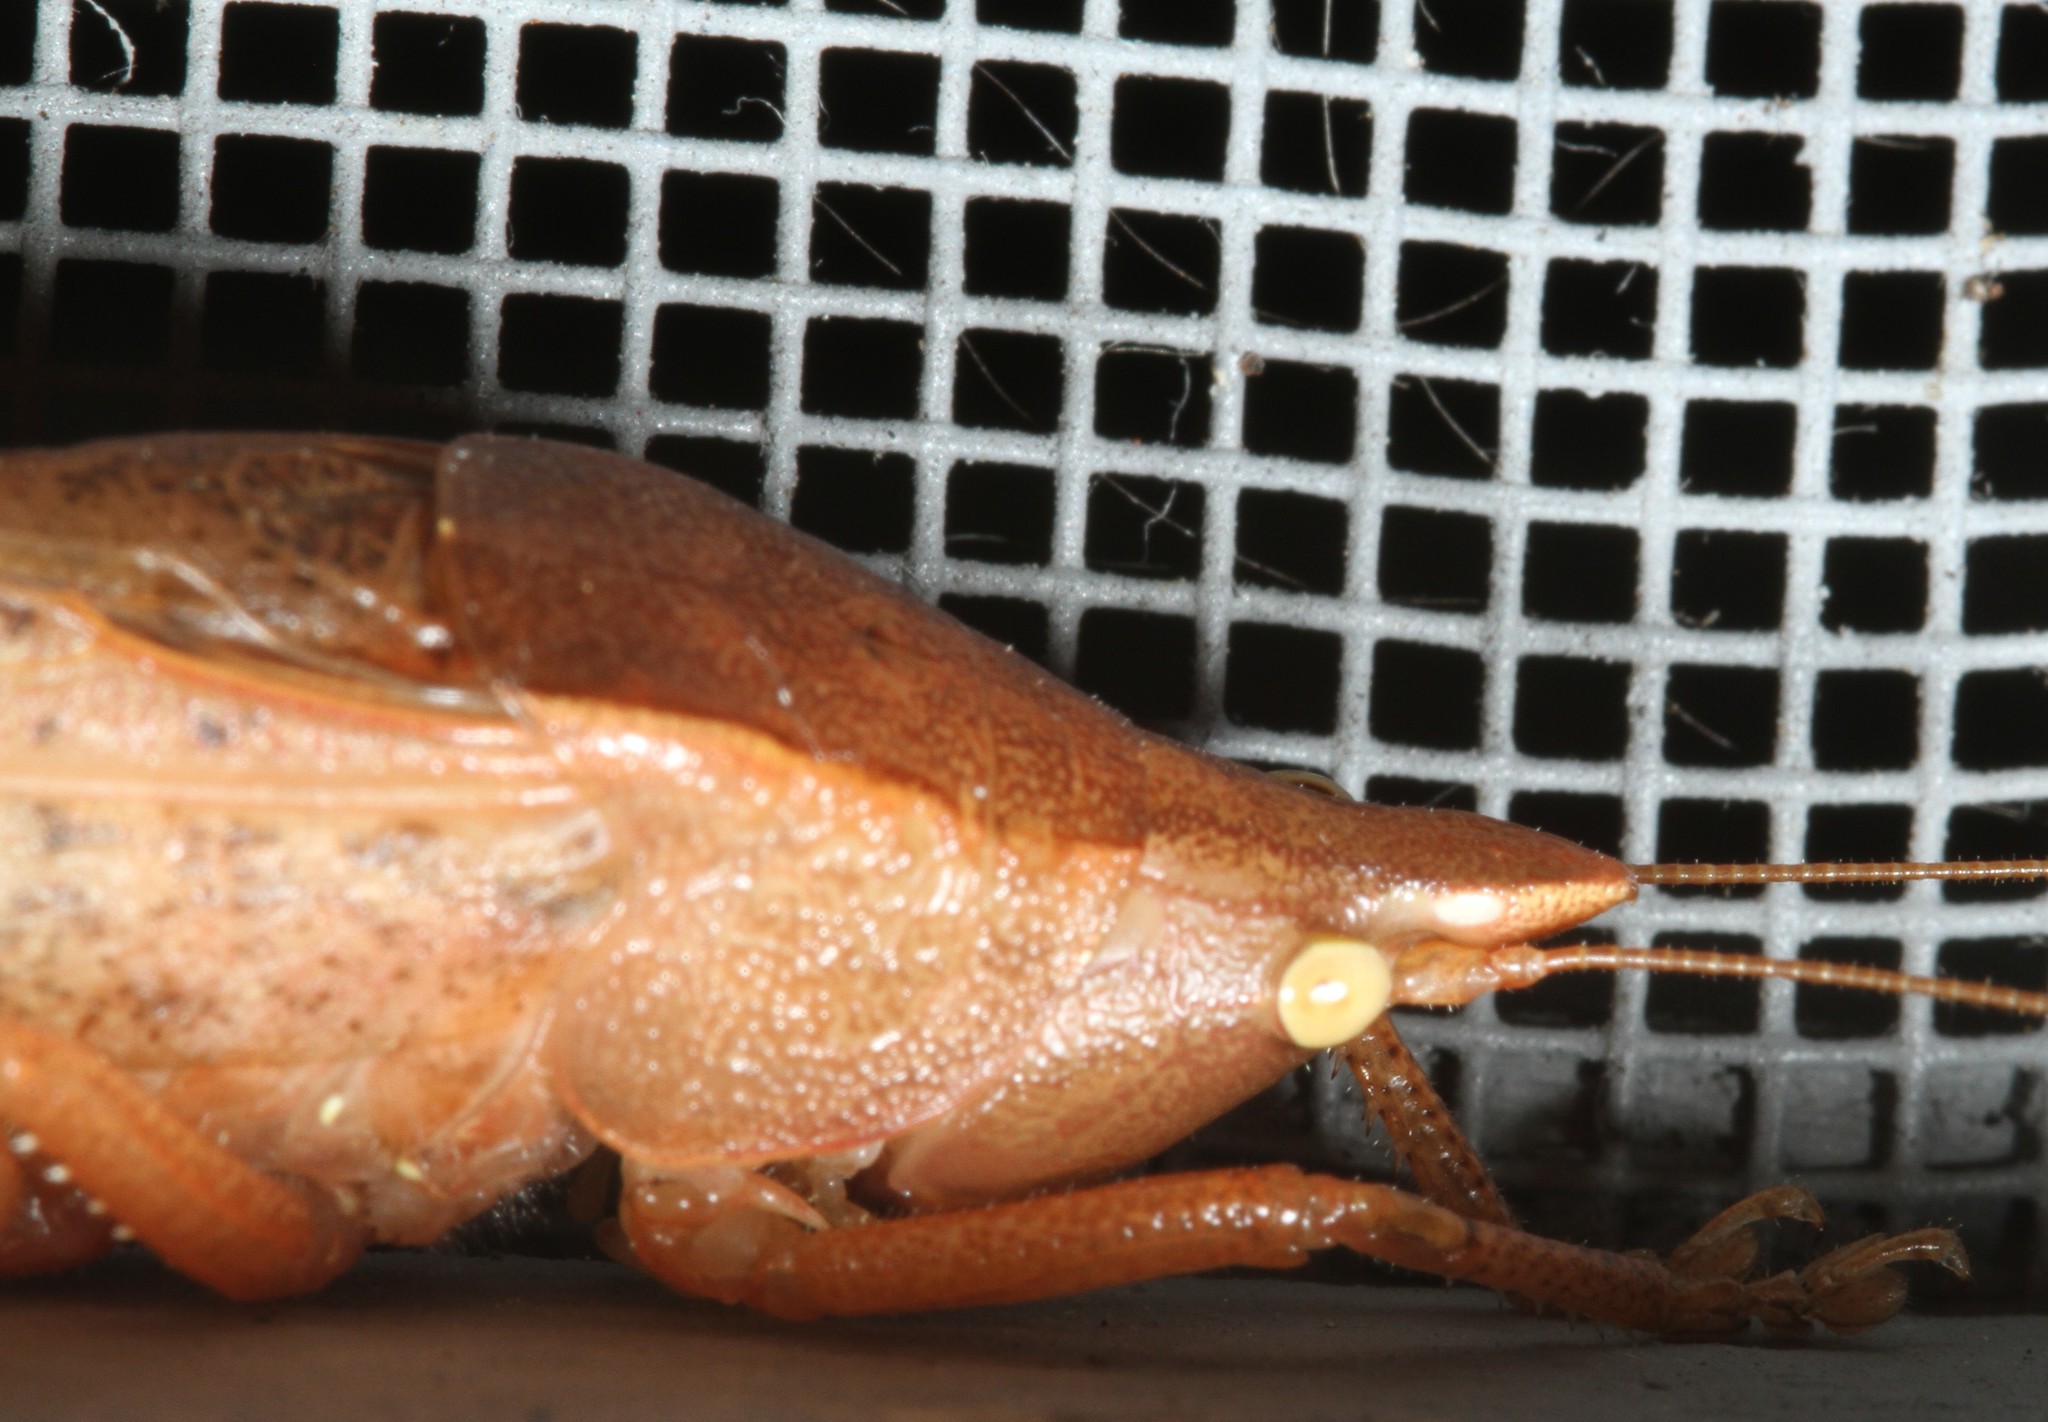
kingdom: Animalia
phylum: Arthropoda
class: Insecta
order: Orthoptera
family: Tettigoniidae
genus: Pyrgocorypha
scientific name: Pyrgocorypha uncinata
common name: Hook-faced conehead
